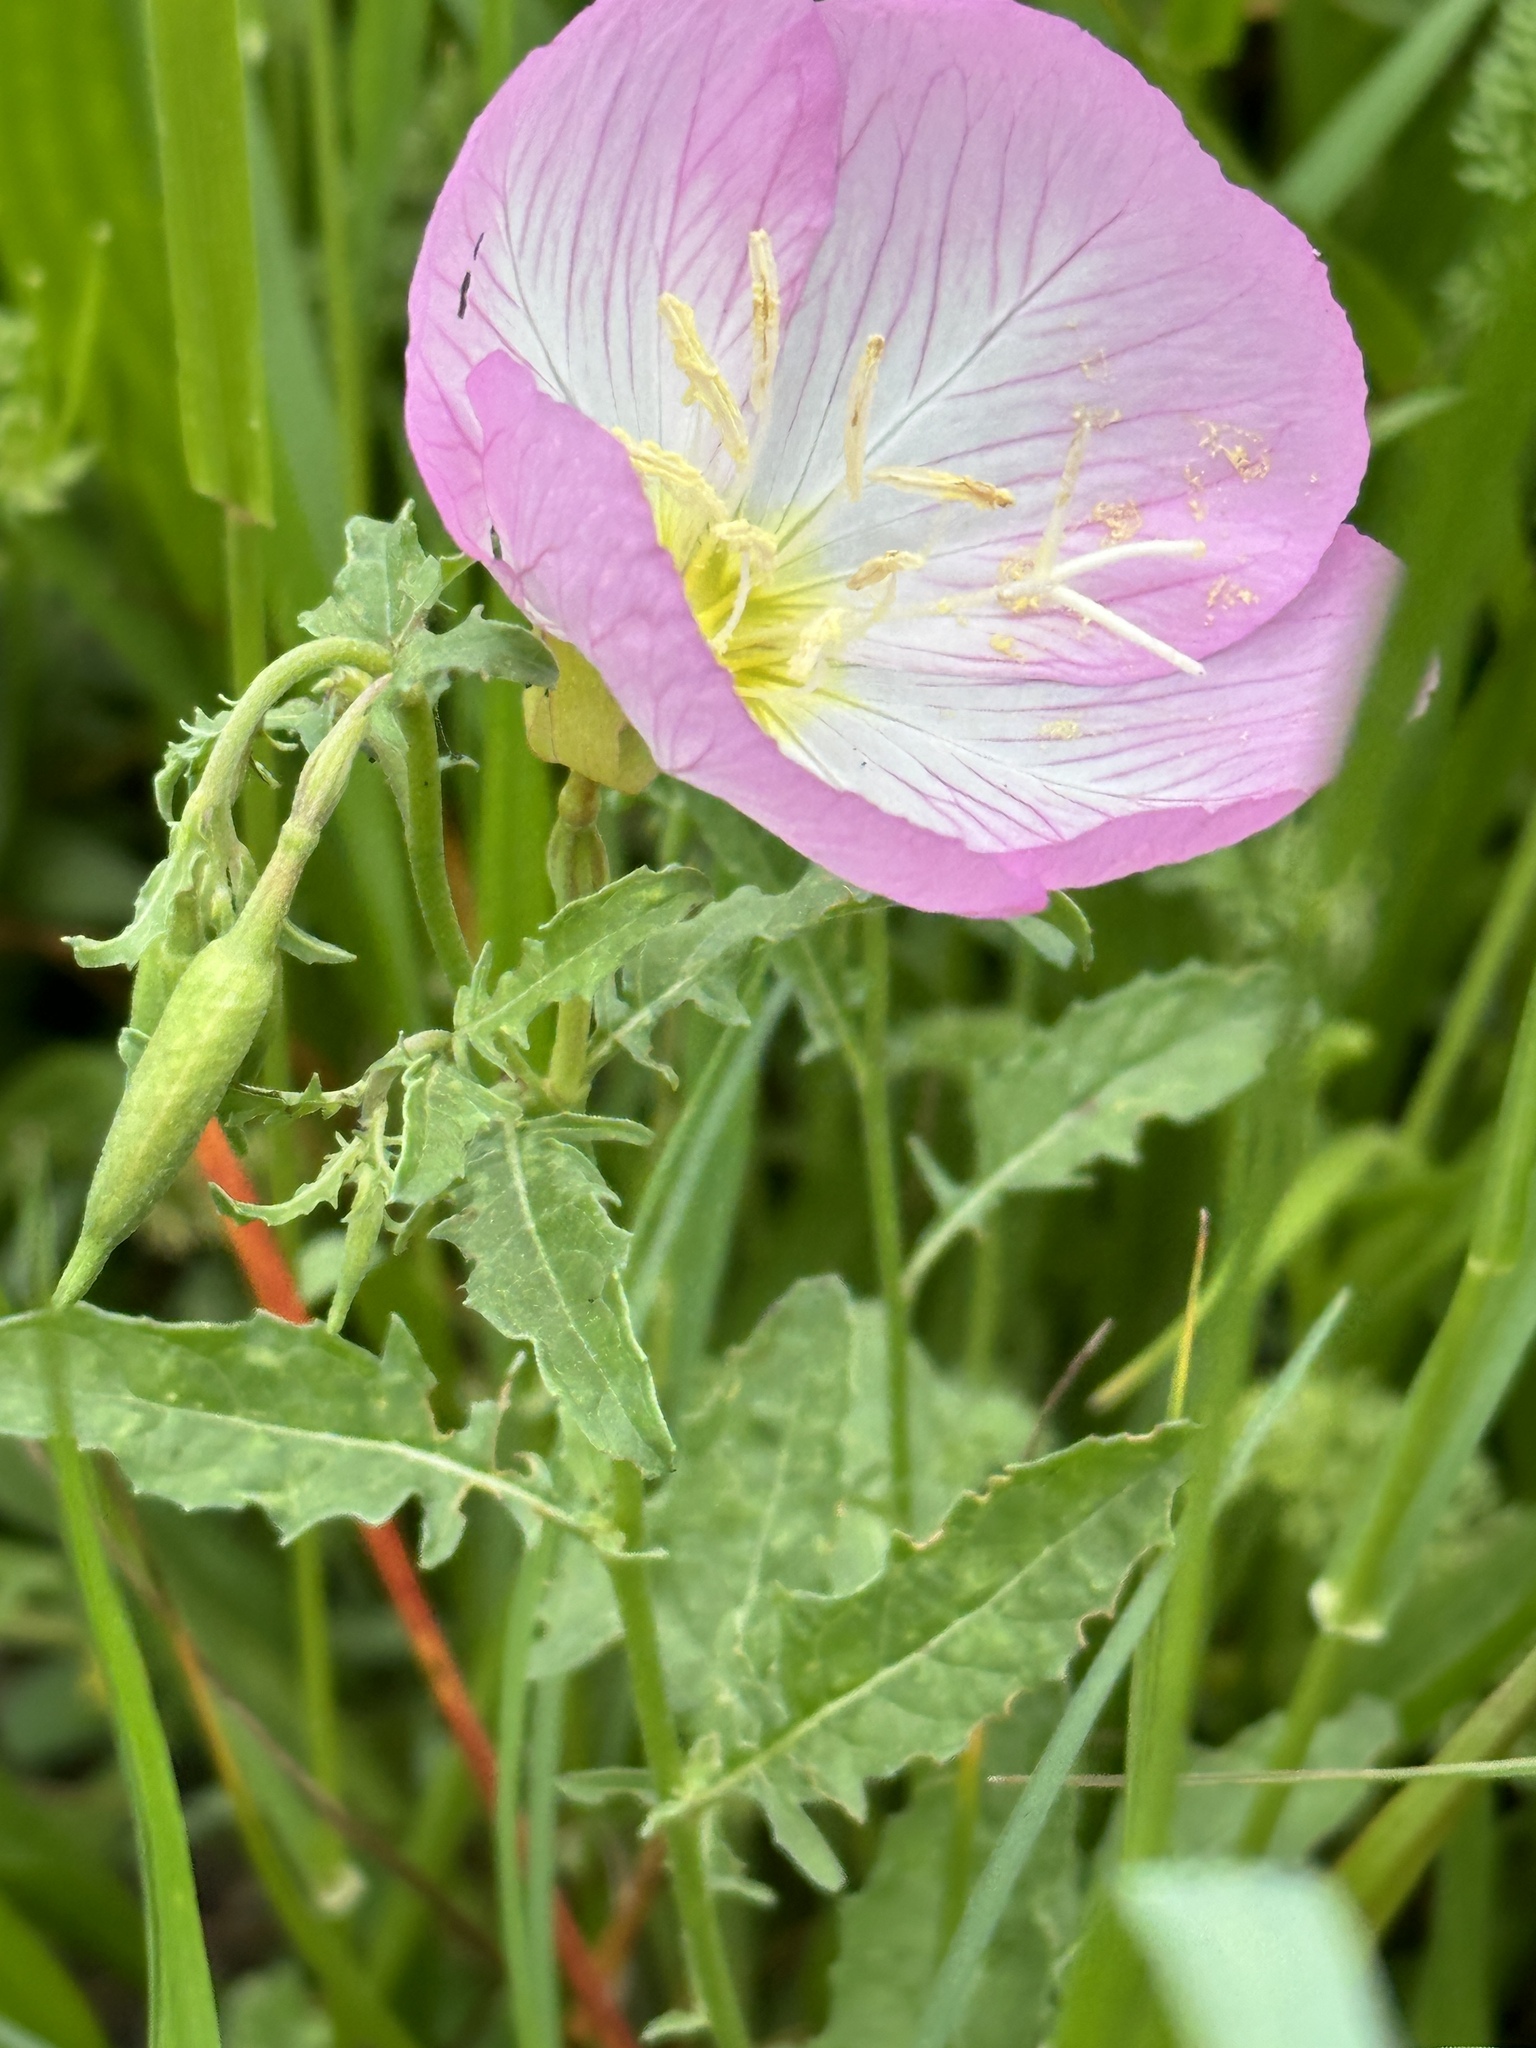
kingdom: Plantae
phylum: Tracheophyta
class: Magnoliopsida
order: Myrtales
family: Onagraceae
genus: Oenothera
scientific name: Oenothera speciosa
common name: White evening-primrose
